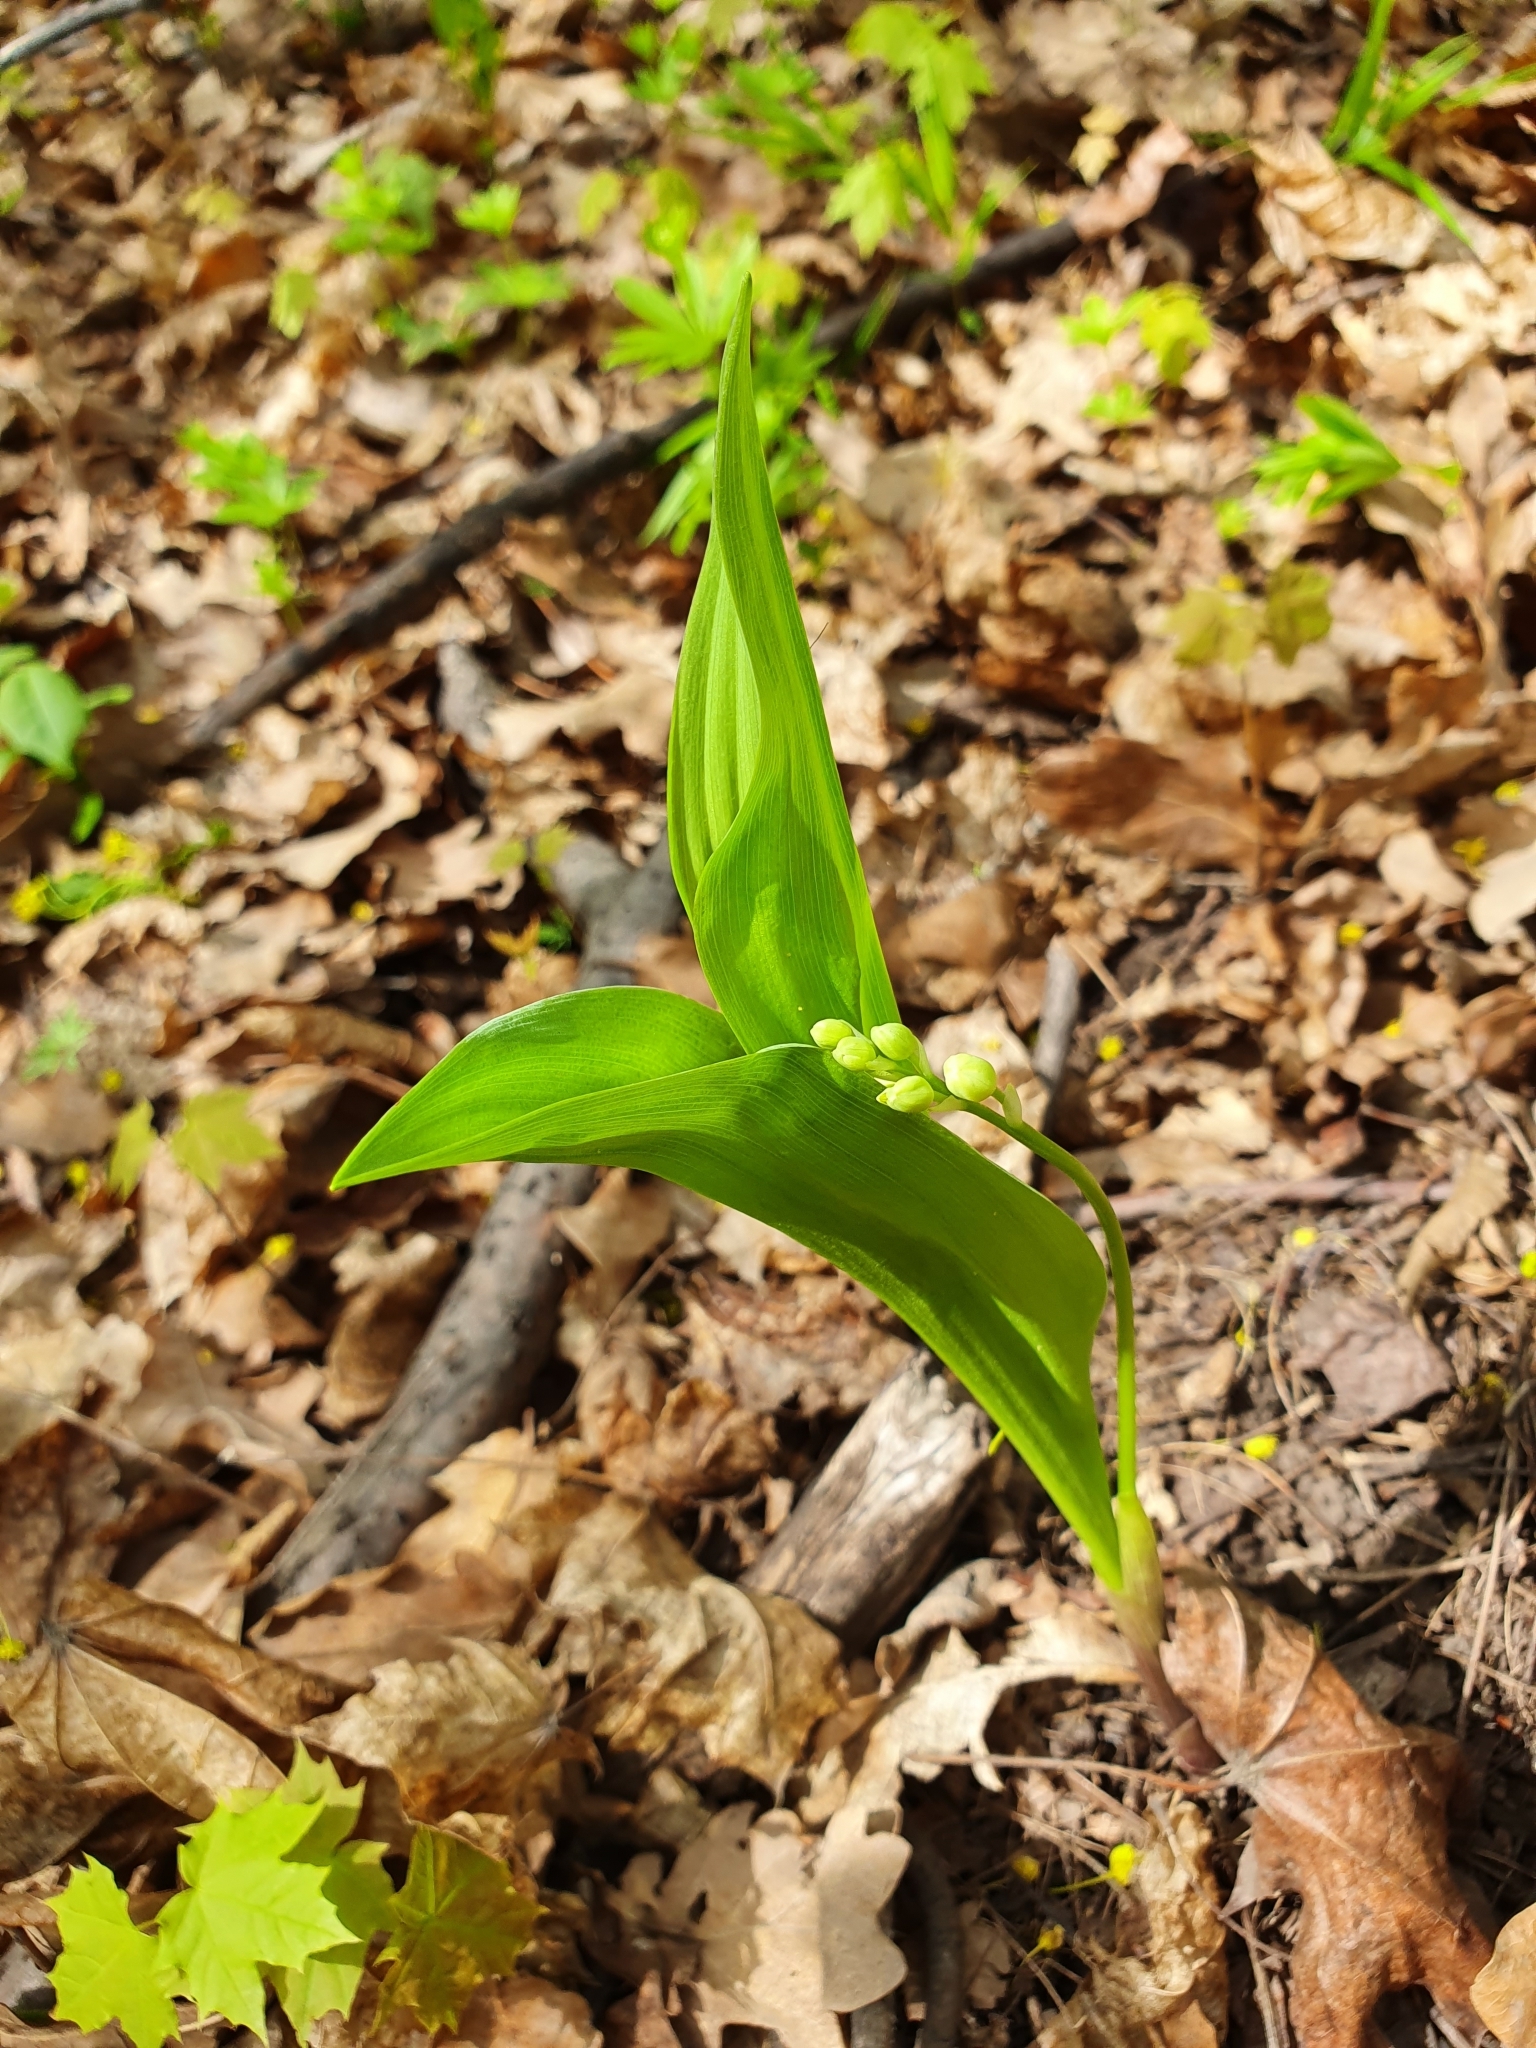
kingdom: Plantae
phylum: Tracheophyta
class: Liliopsida
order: Asparagales
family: Asparagaceae
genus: Convallaria
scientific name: Convallaria majalis
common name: Lily-of-the-valley
